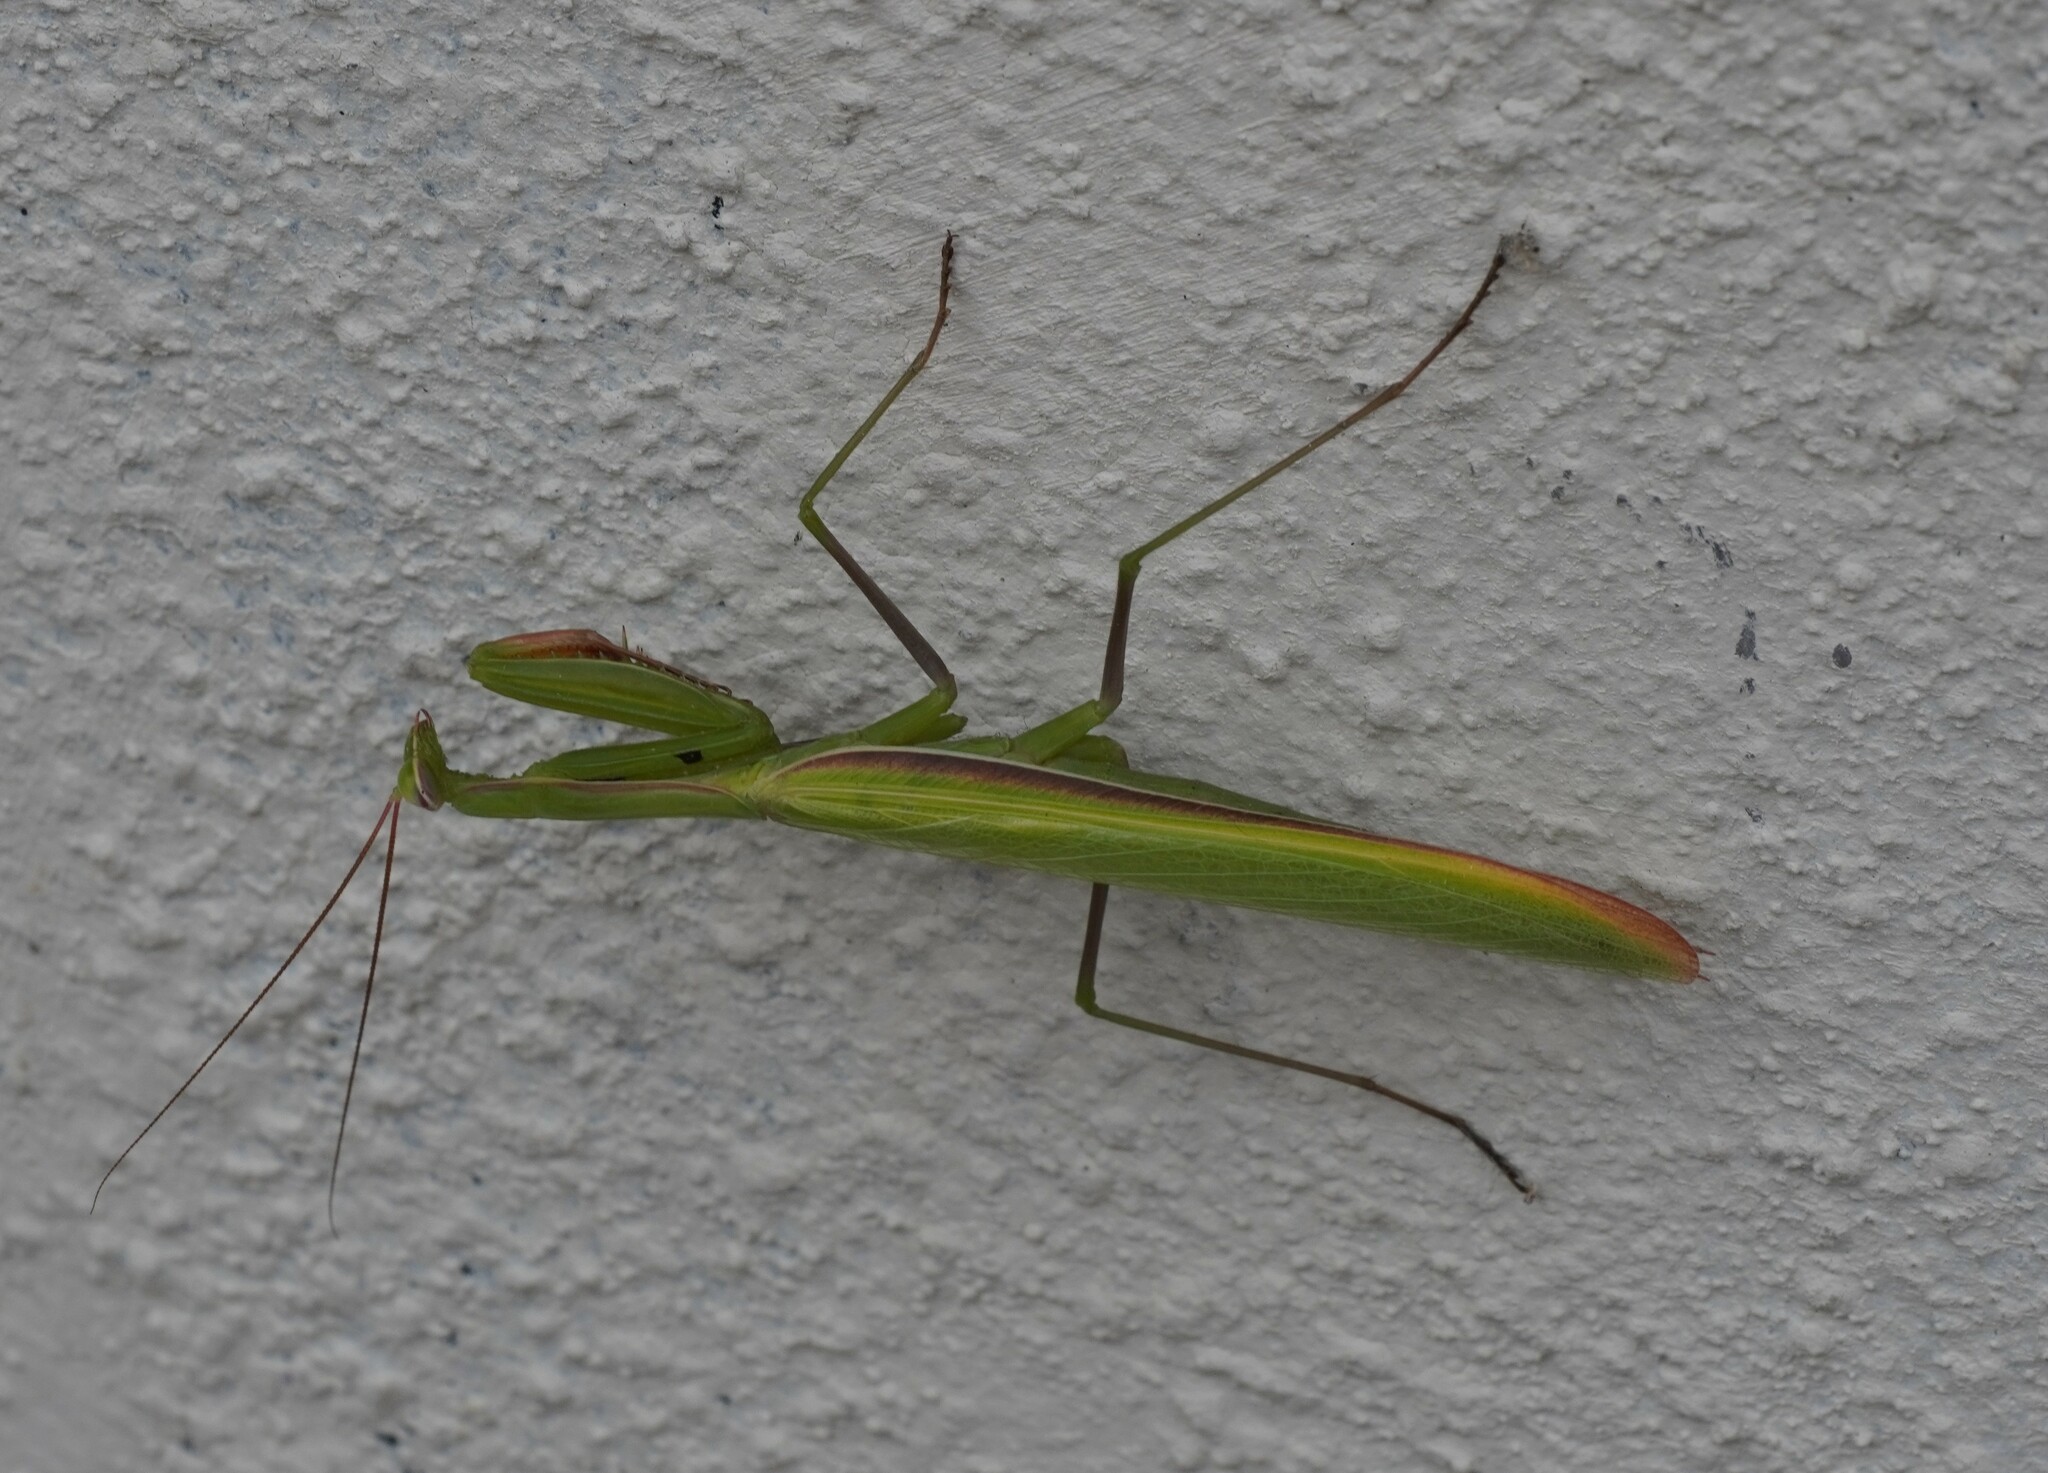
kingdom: Animalia
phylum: Arthropoda
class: Insecta
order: Mantodea
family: Mantidae
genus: Mantis
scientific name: Mantis religiosa
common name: Praying mantis
